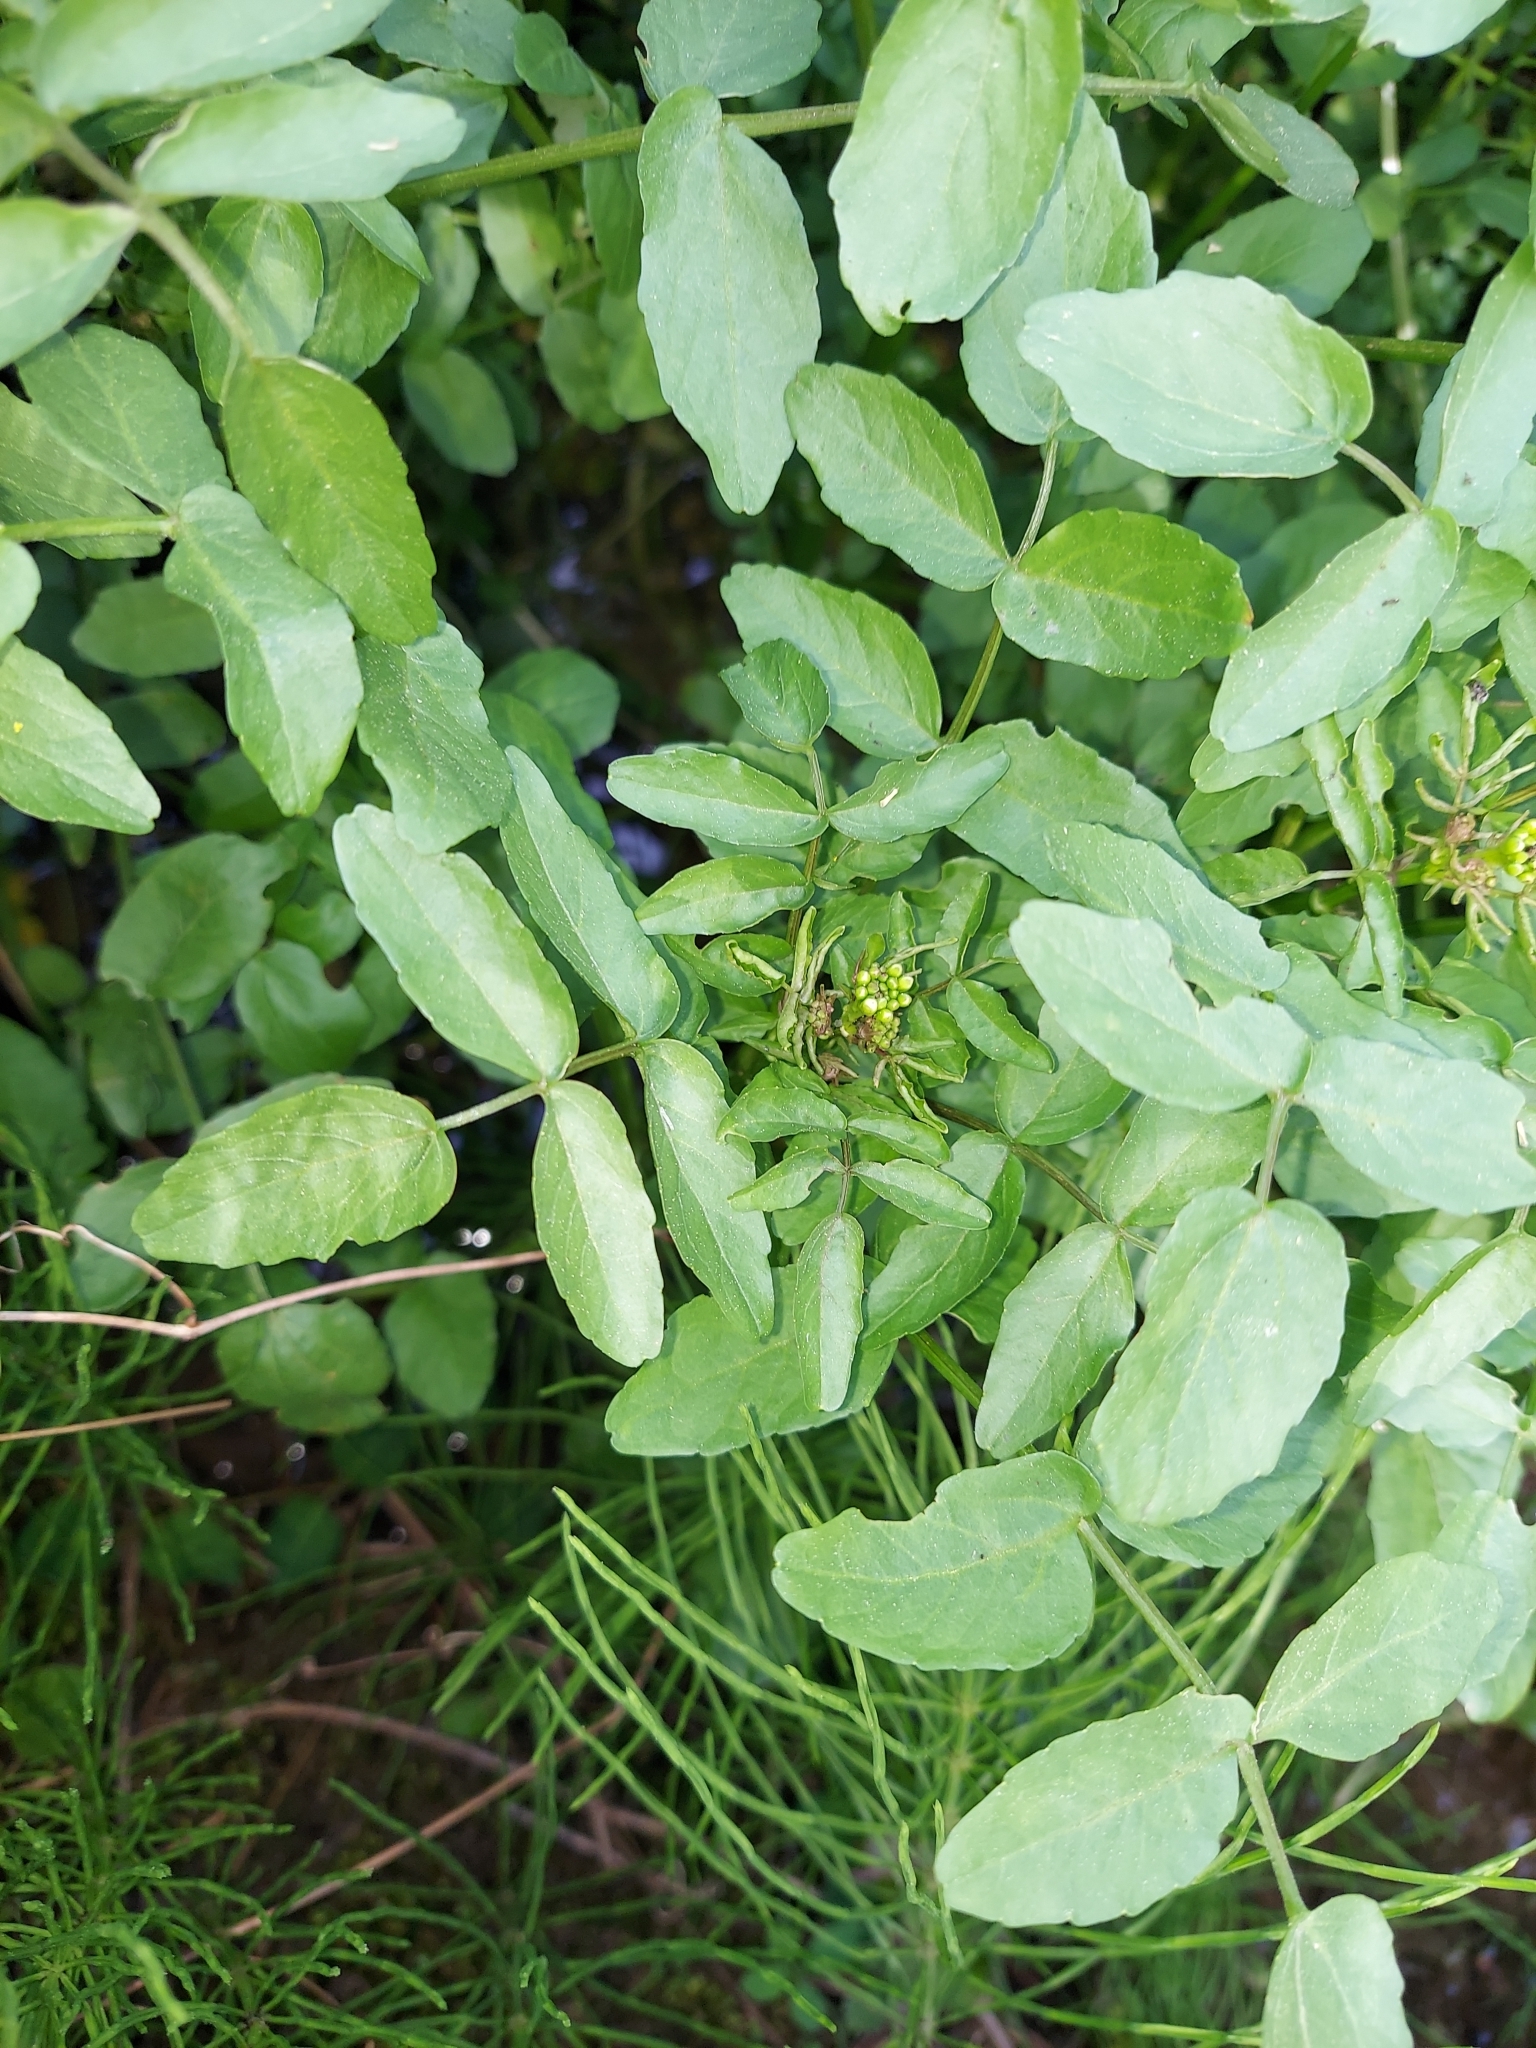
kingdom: Plantae
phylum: Tracheophyta
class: Magnoliopsida
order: Brassicales
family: Brassicaceae
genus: Nasturtium
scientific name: Nasturtium officinale
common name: Watercress
